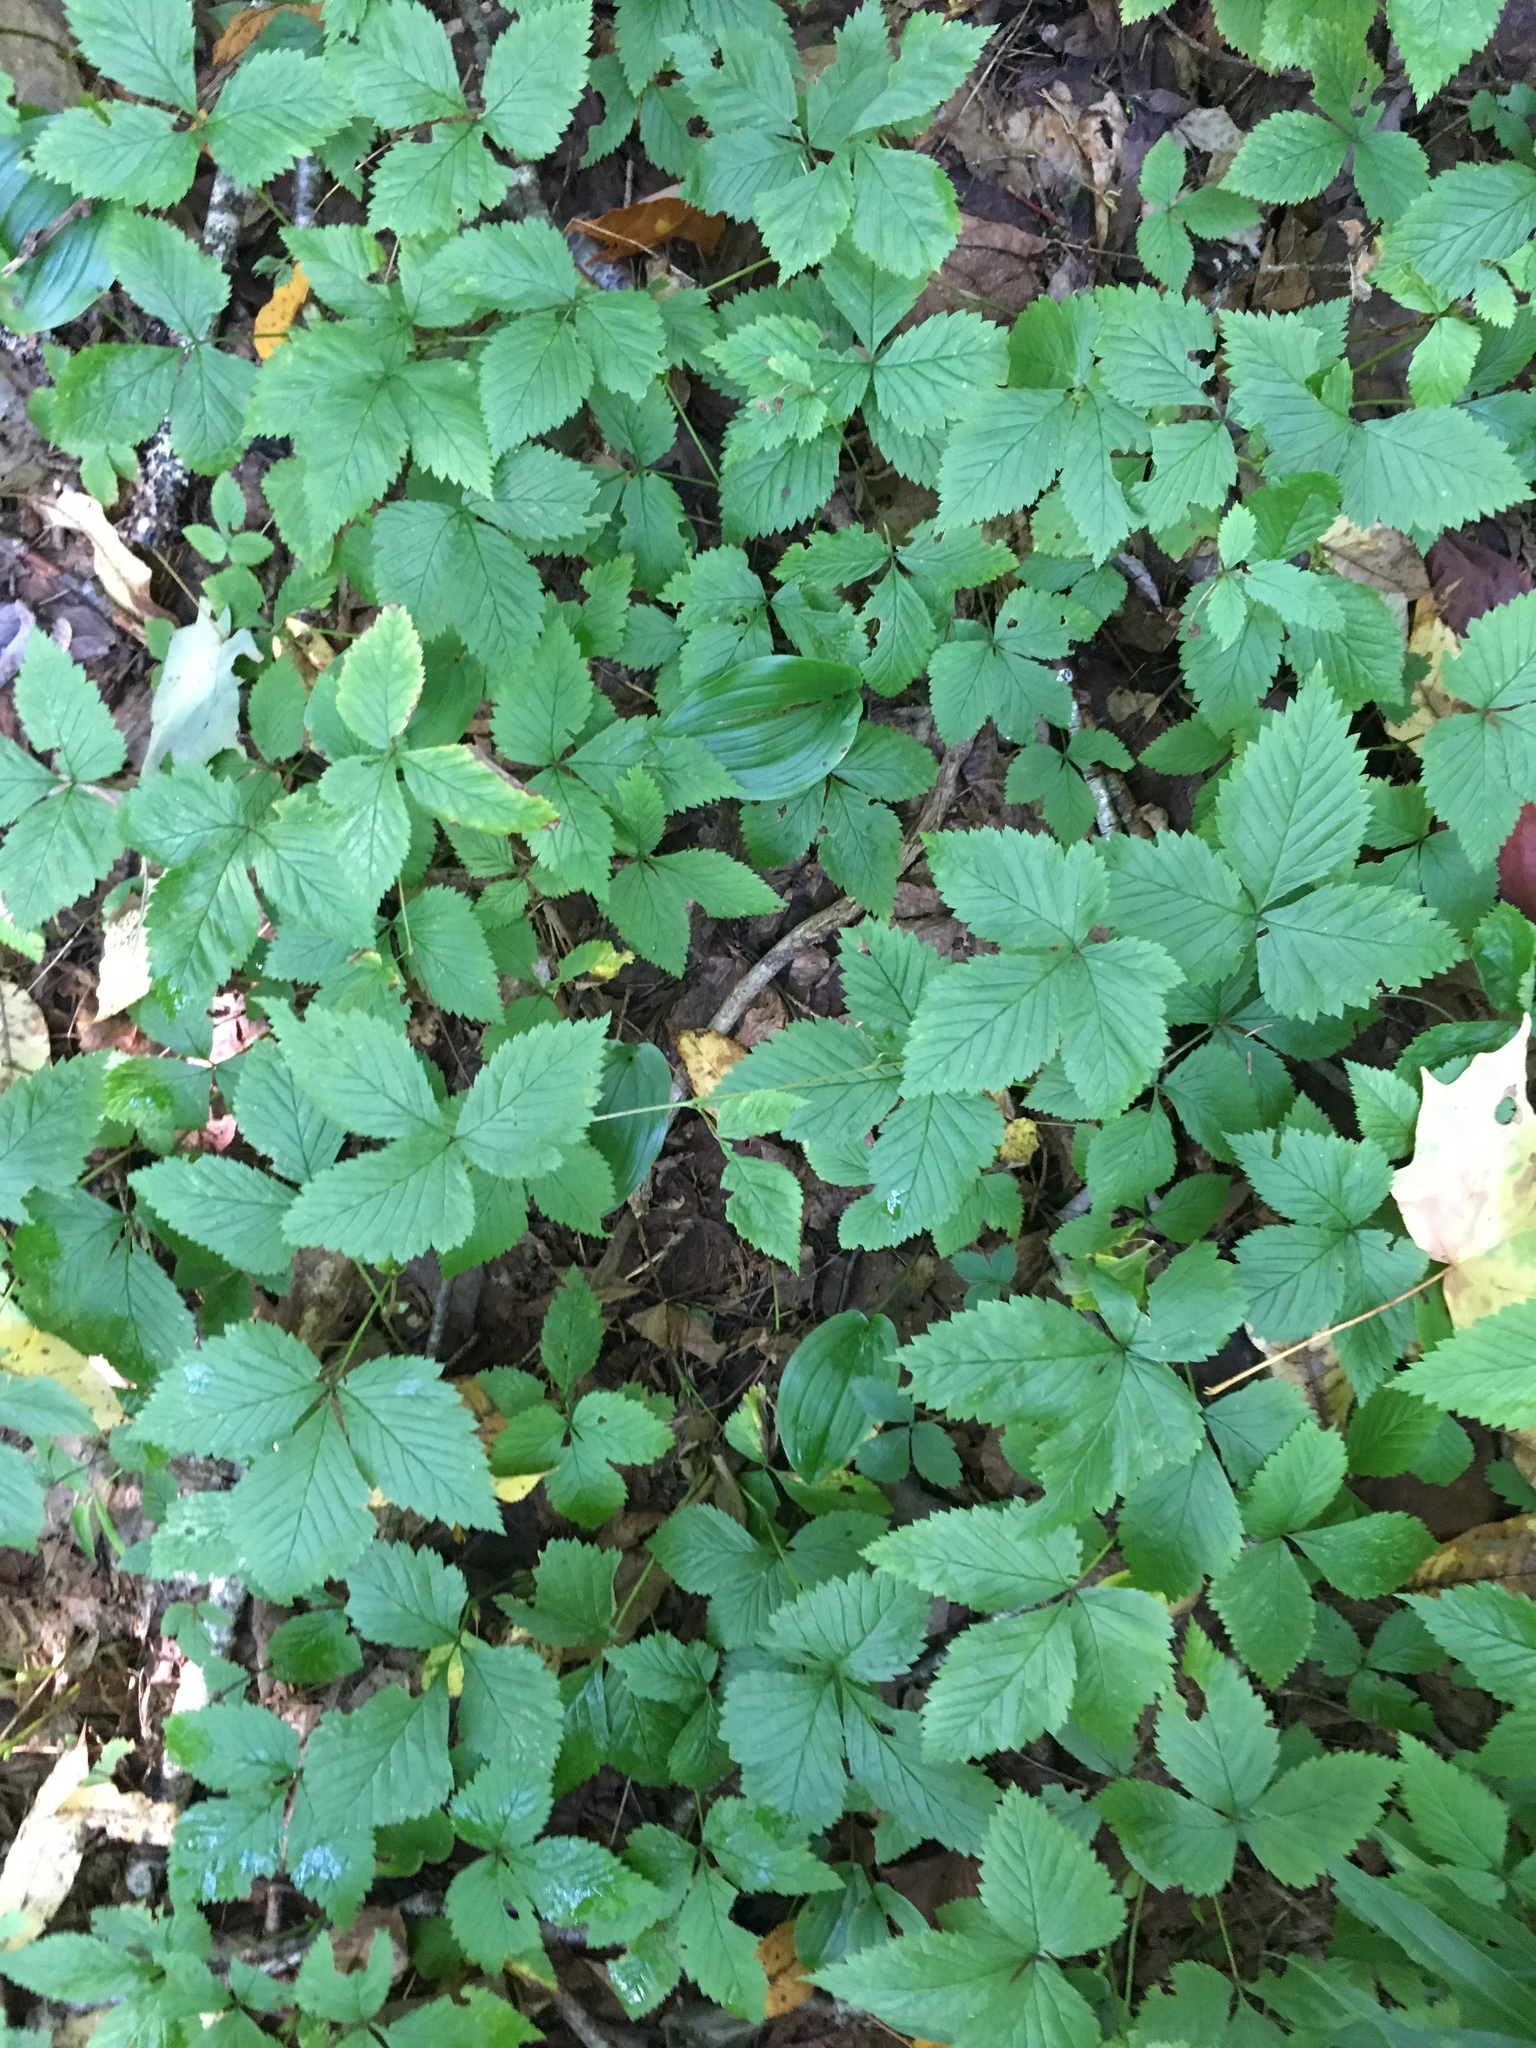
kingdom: Plantae
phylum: Tracheophyta
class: Magnoliopsida
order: Rosales
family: Rosaceae
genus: Rubus
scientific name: Rubus pubescens
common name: Dwarf raspberry
